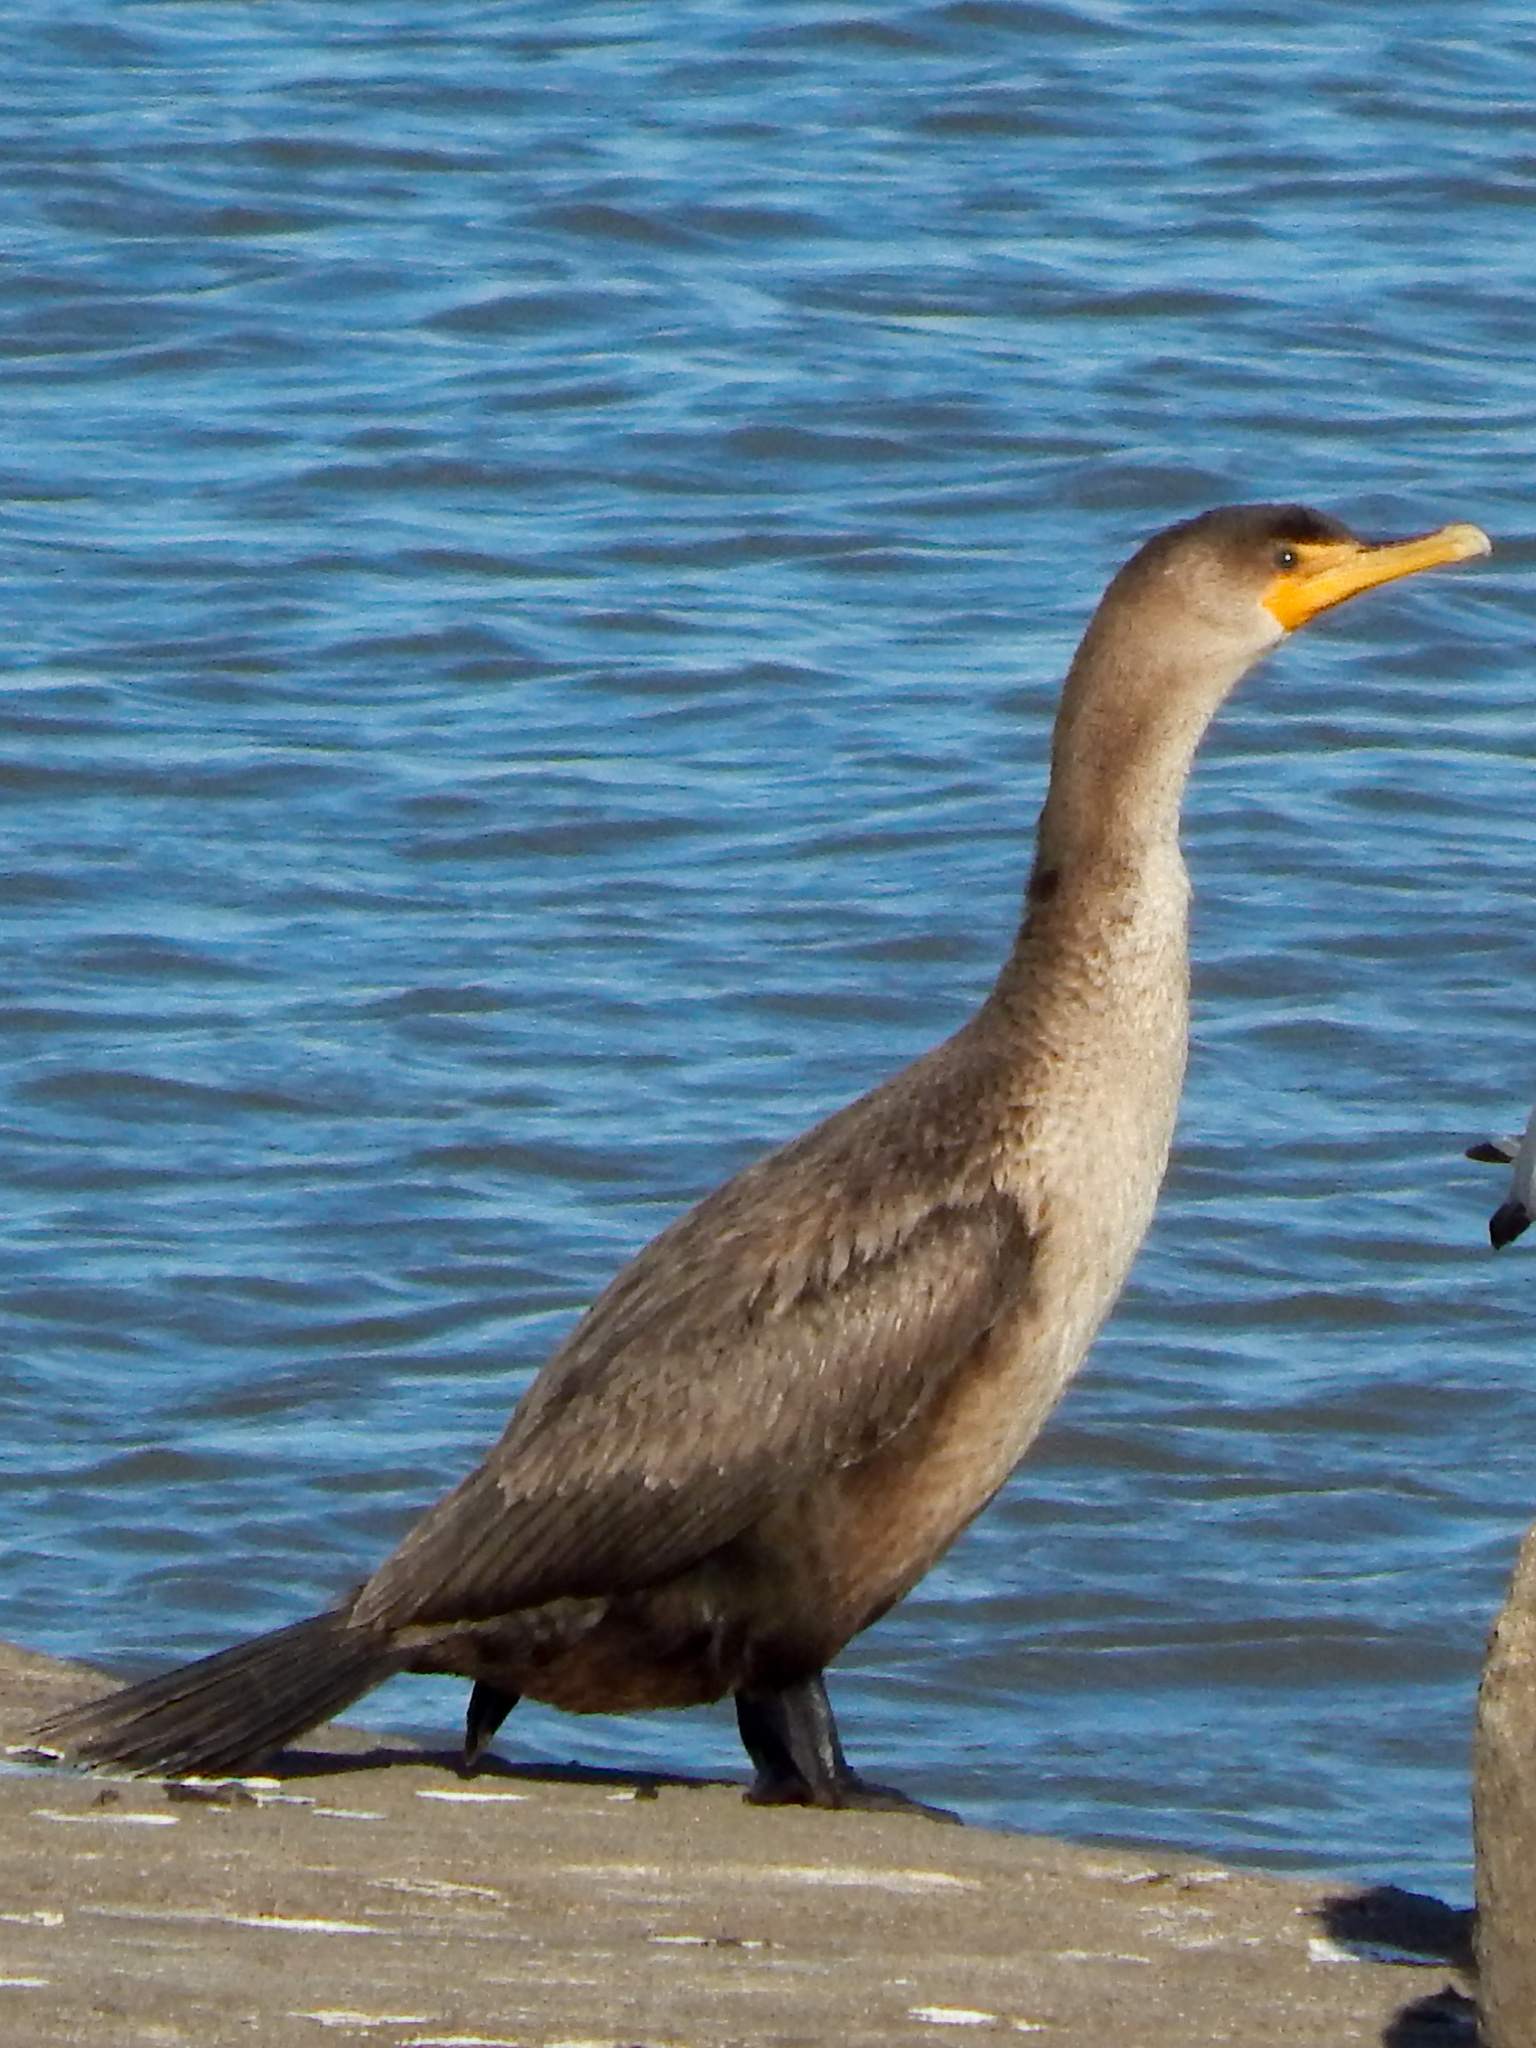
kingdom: Animalia
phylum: Chordata
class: Aves
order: Suliformes
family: Phalacrocoracidae
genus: Phalacrocorax
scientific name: Phalacrocorax auritus
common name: Double-crested cormorant
